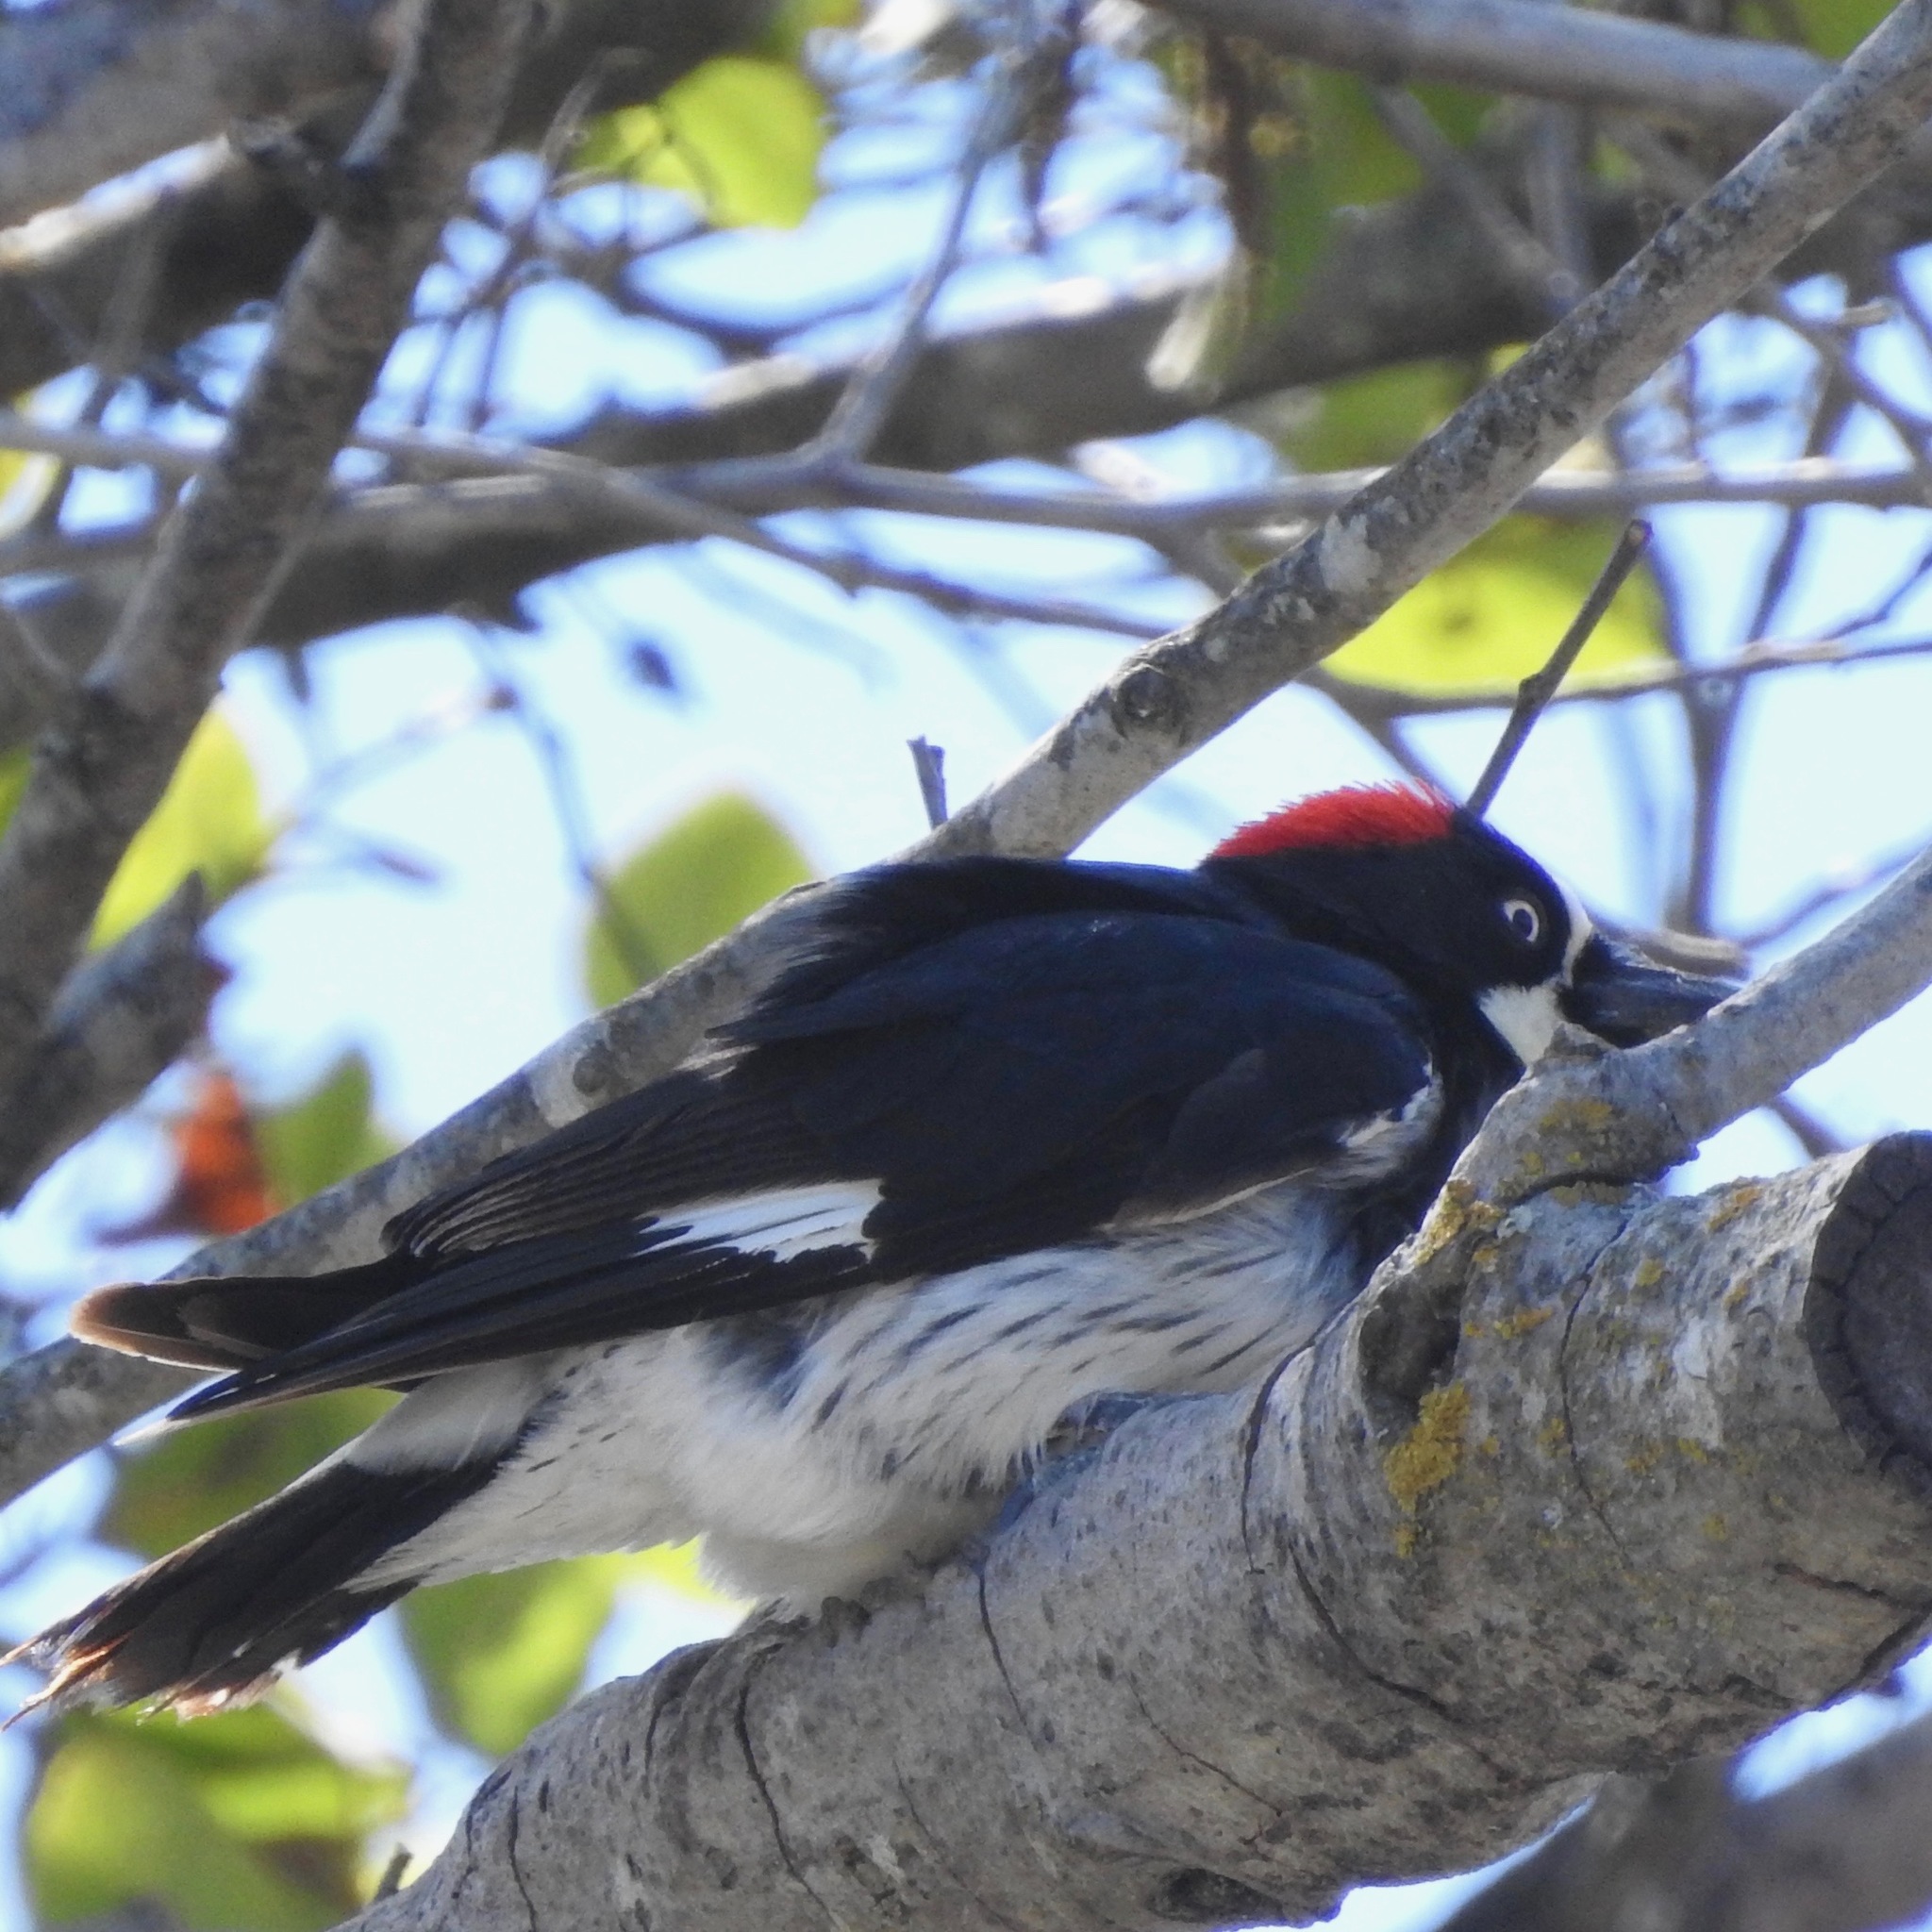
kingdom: Animalia
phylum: Chordata
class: Aves
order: Piciformes
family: Picidae
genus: Melanerpes
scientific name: Melanerpes formicivorus
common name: Acorn woodpecker
